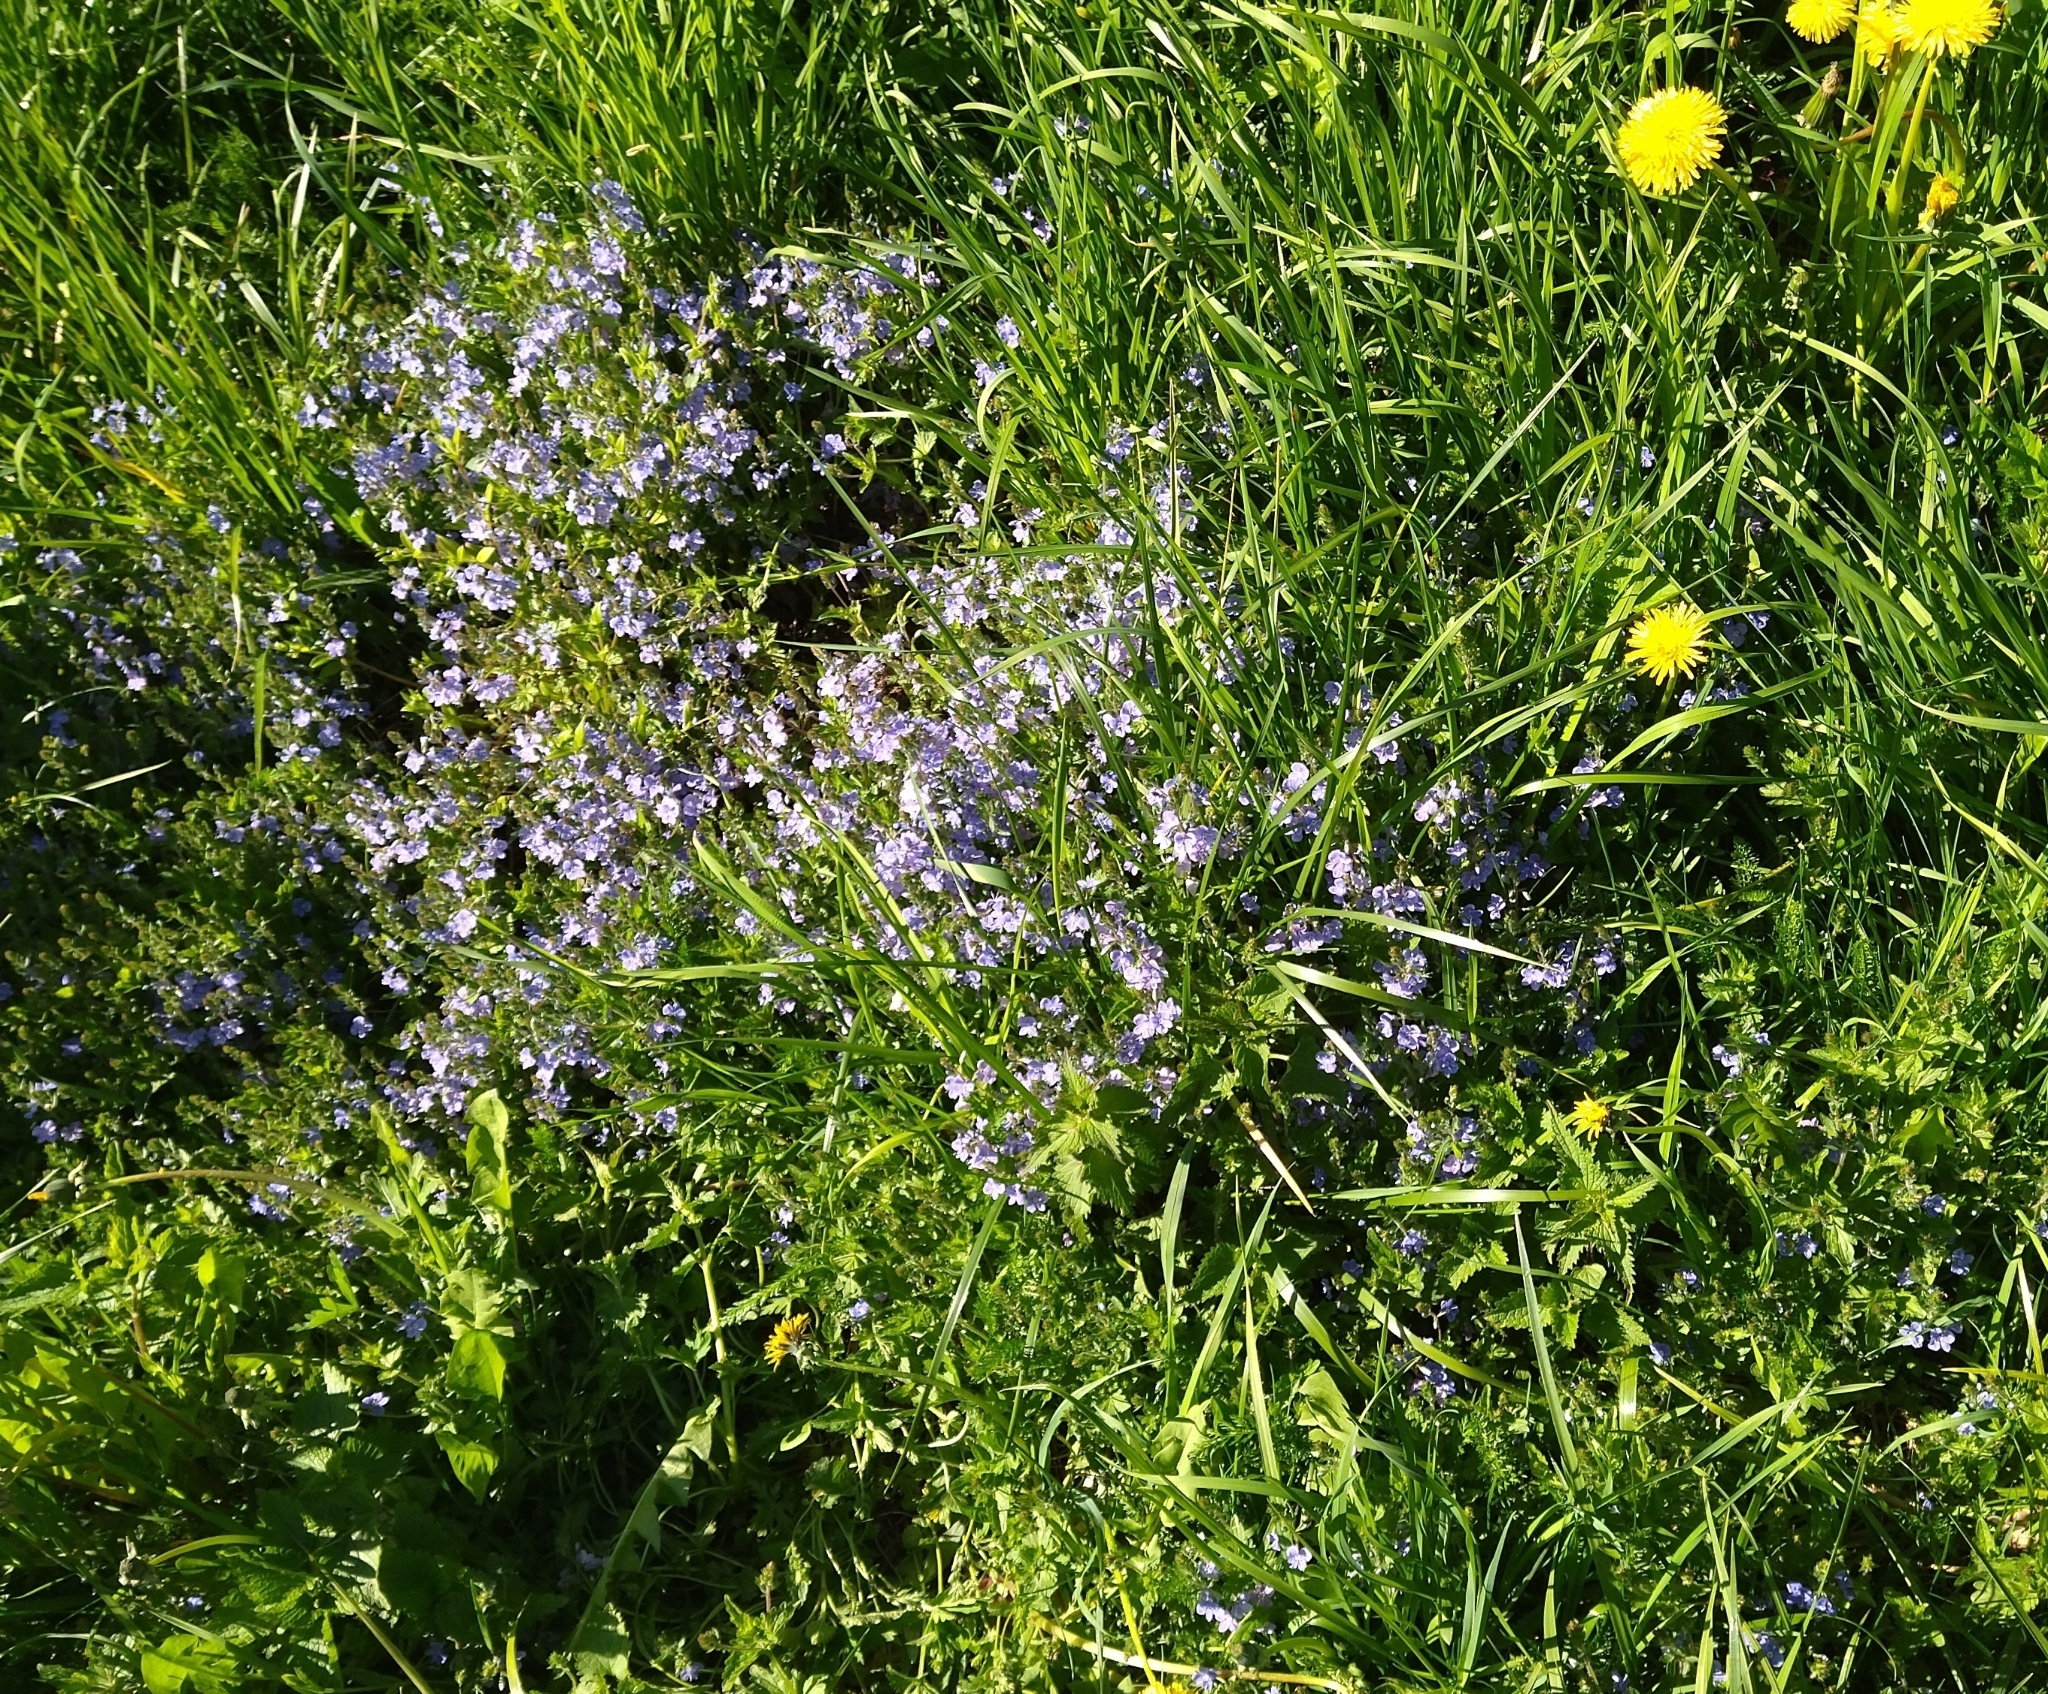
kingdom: Plantae
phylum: Tracheophyta
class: Magnoliopsida
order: Lamiales
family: Plantaginaceae
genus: Veronica
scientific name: Veronica chamaedrys
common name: Germander speedwell
